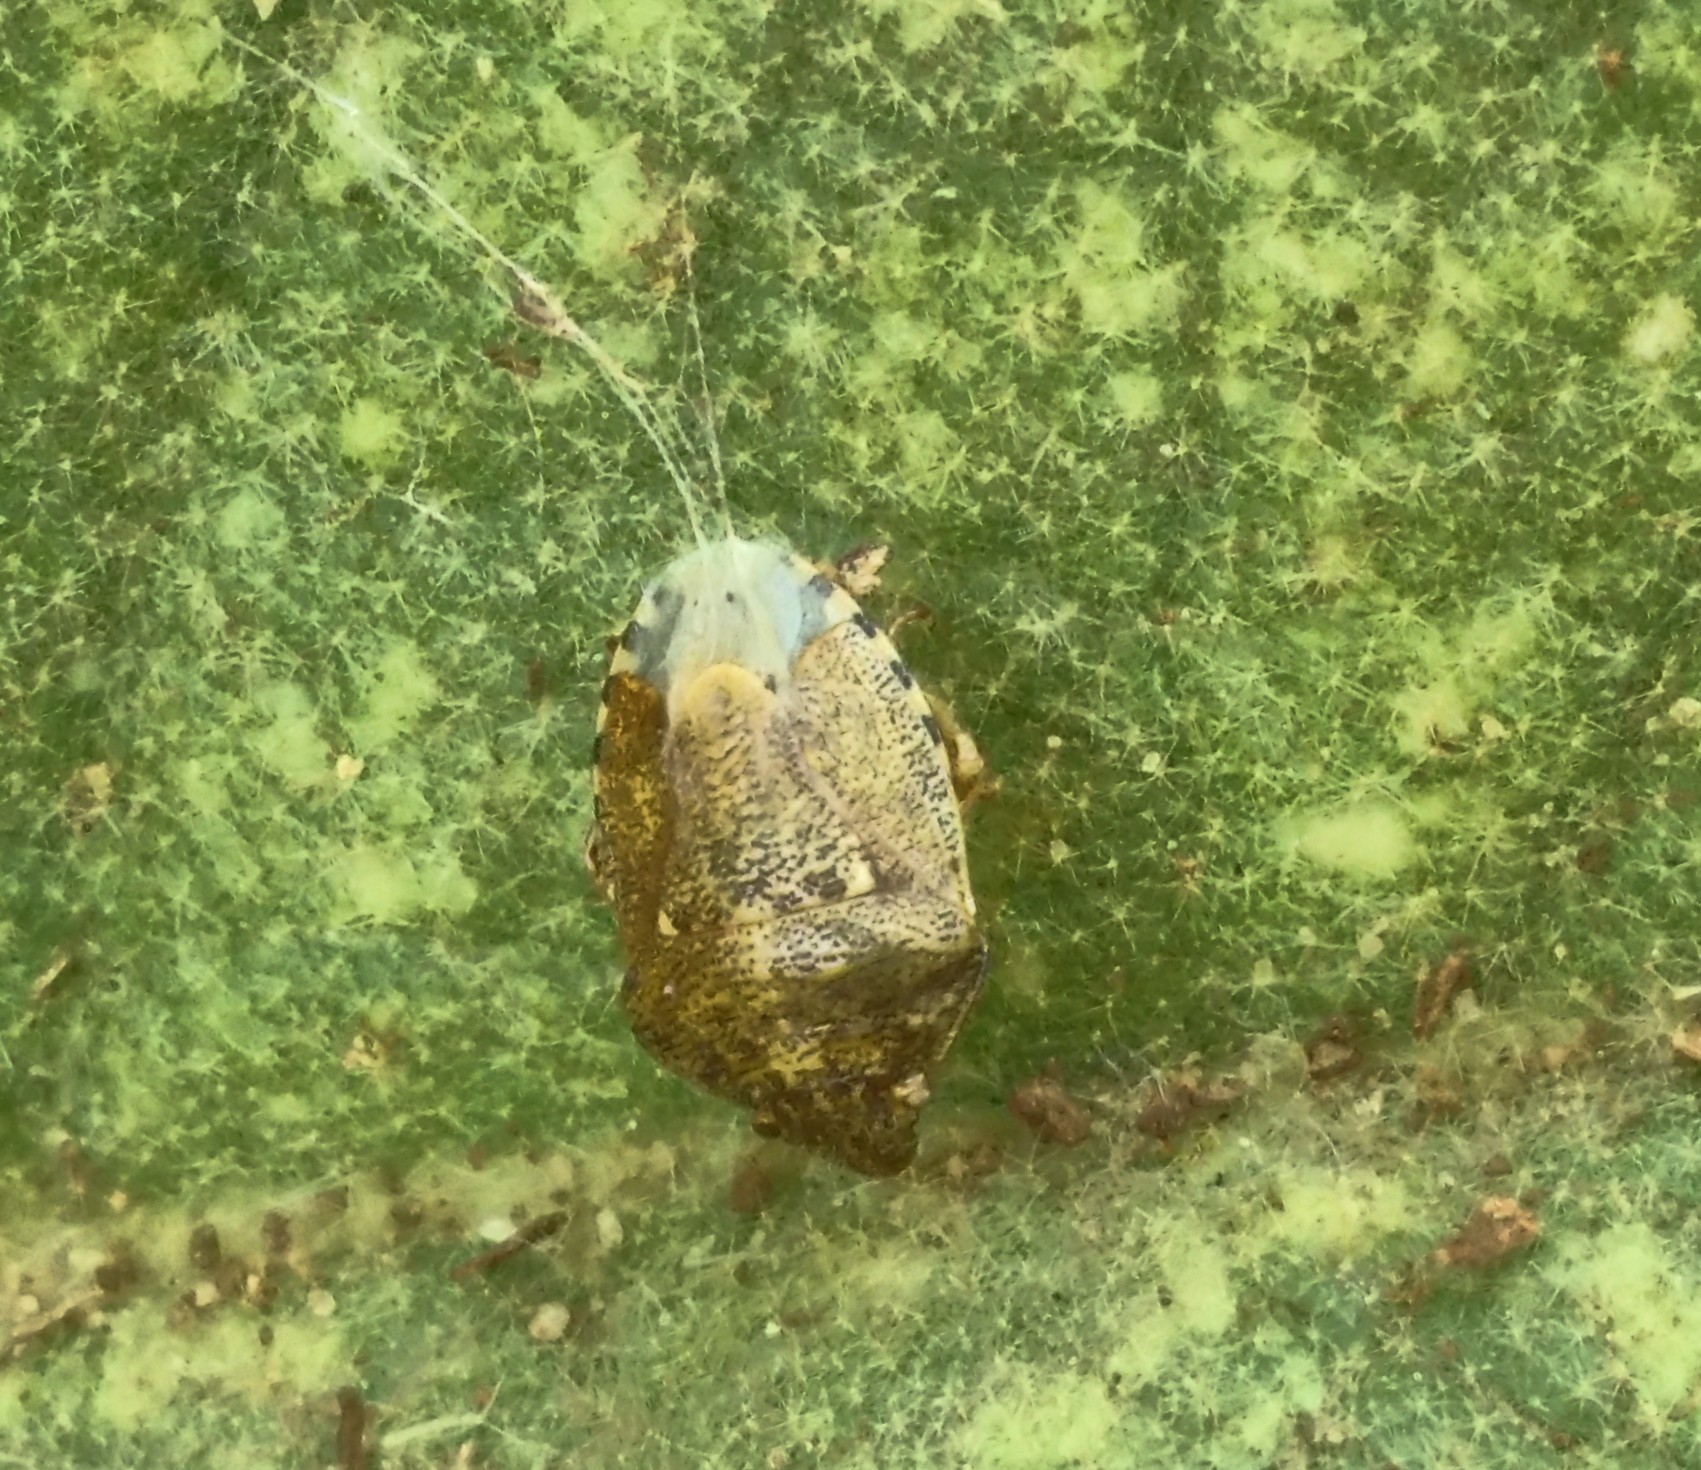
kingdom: Animalia
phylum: Arthropoda
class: Insecta
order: Hemiptera
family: Pentatomidae
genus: Staria
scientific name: Staria lunata
